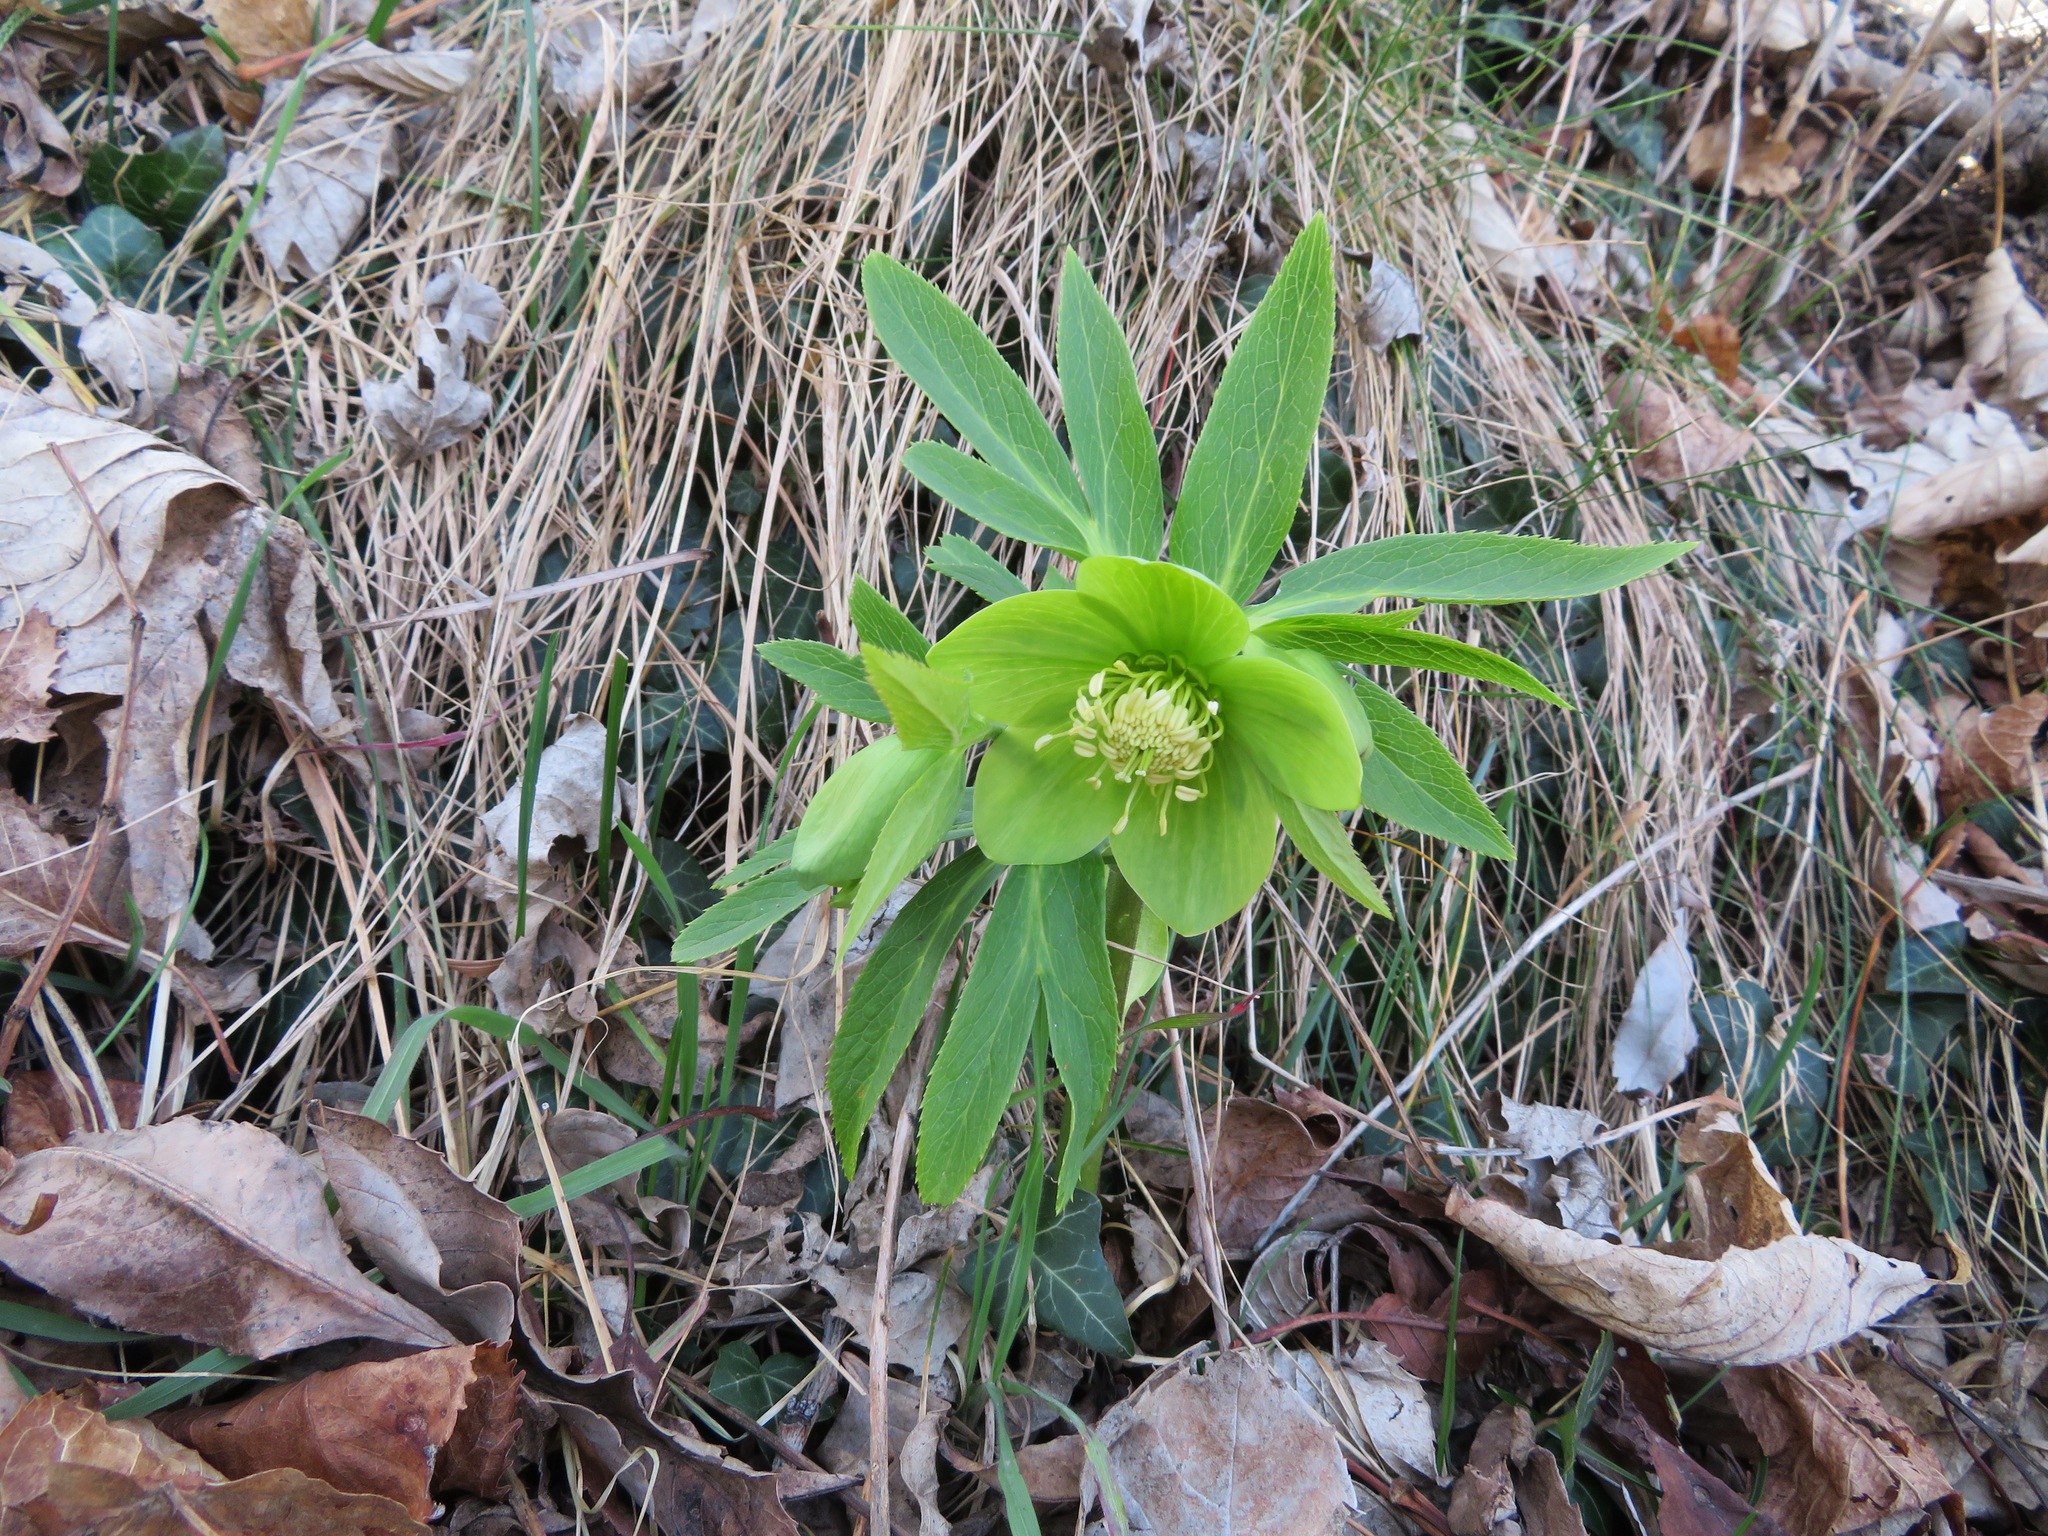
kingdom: Plantae
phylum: Tracheophyta
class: Magnoliopsida
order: Ranunculales
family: Ranunculaceae
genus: Helleborus
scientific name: Helleborus viridis
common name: Green hellebore
